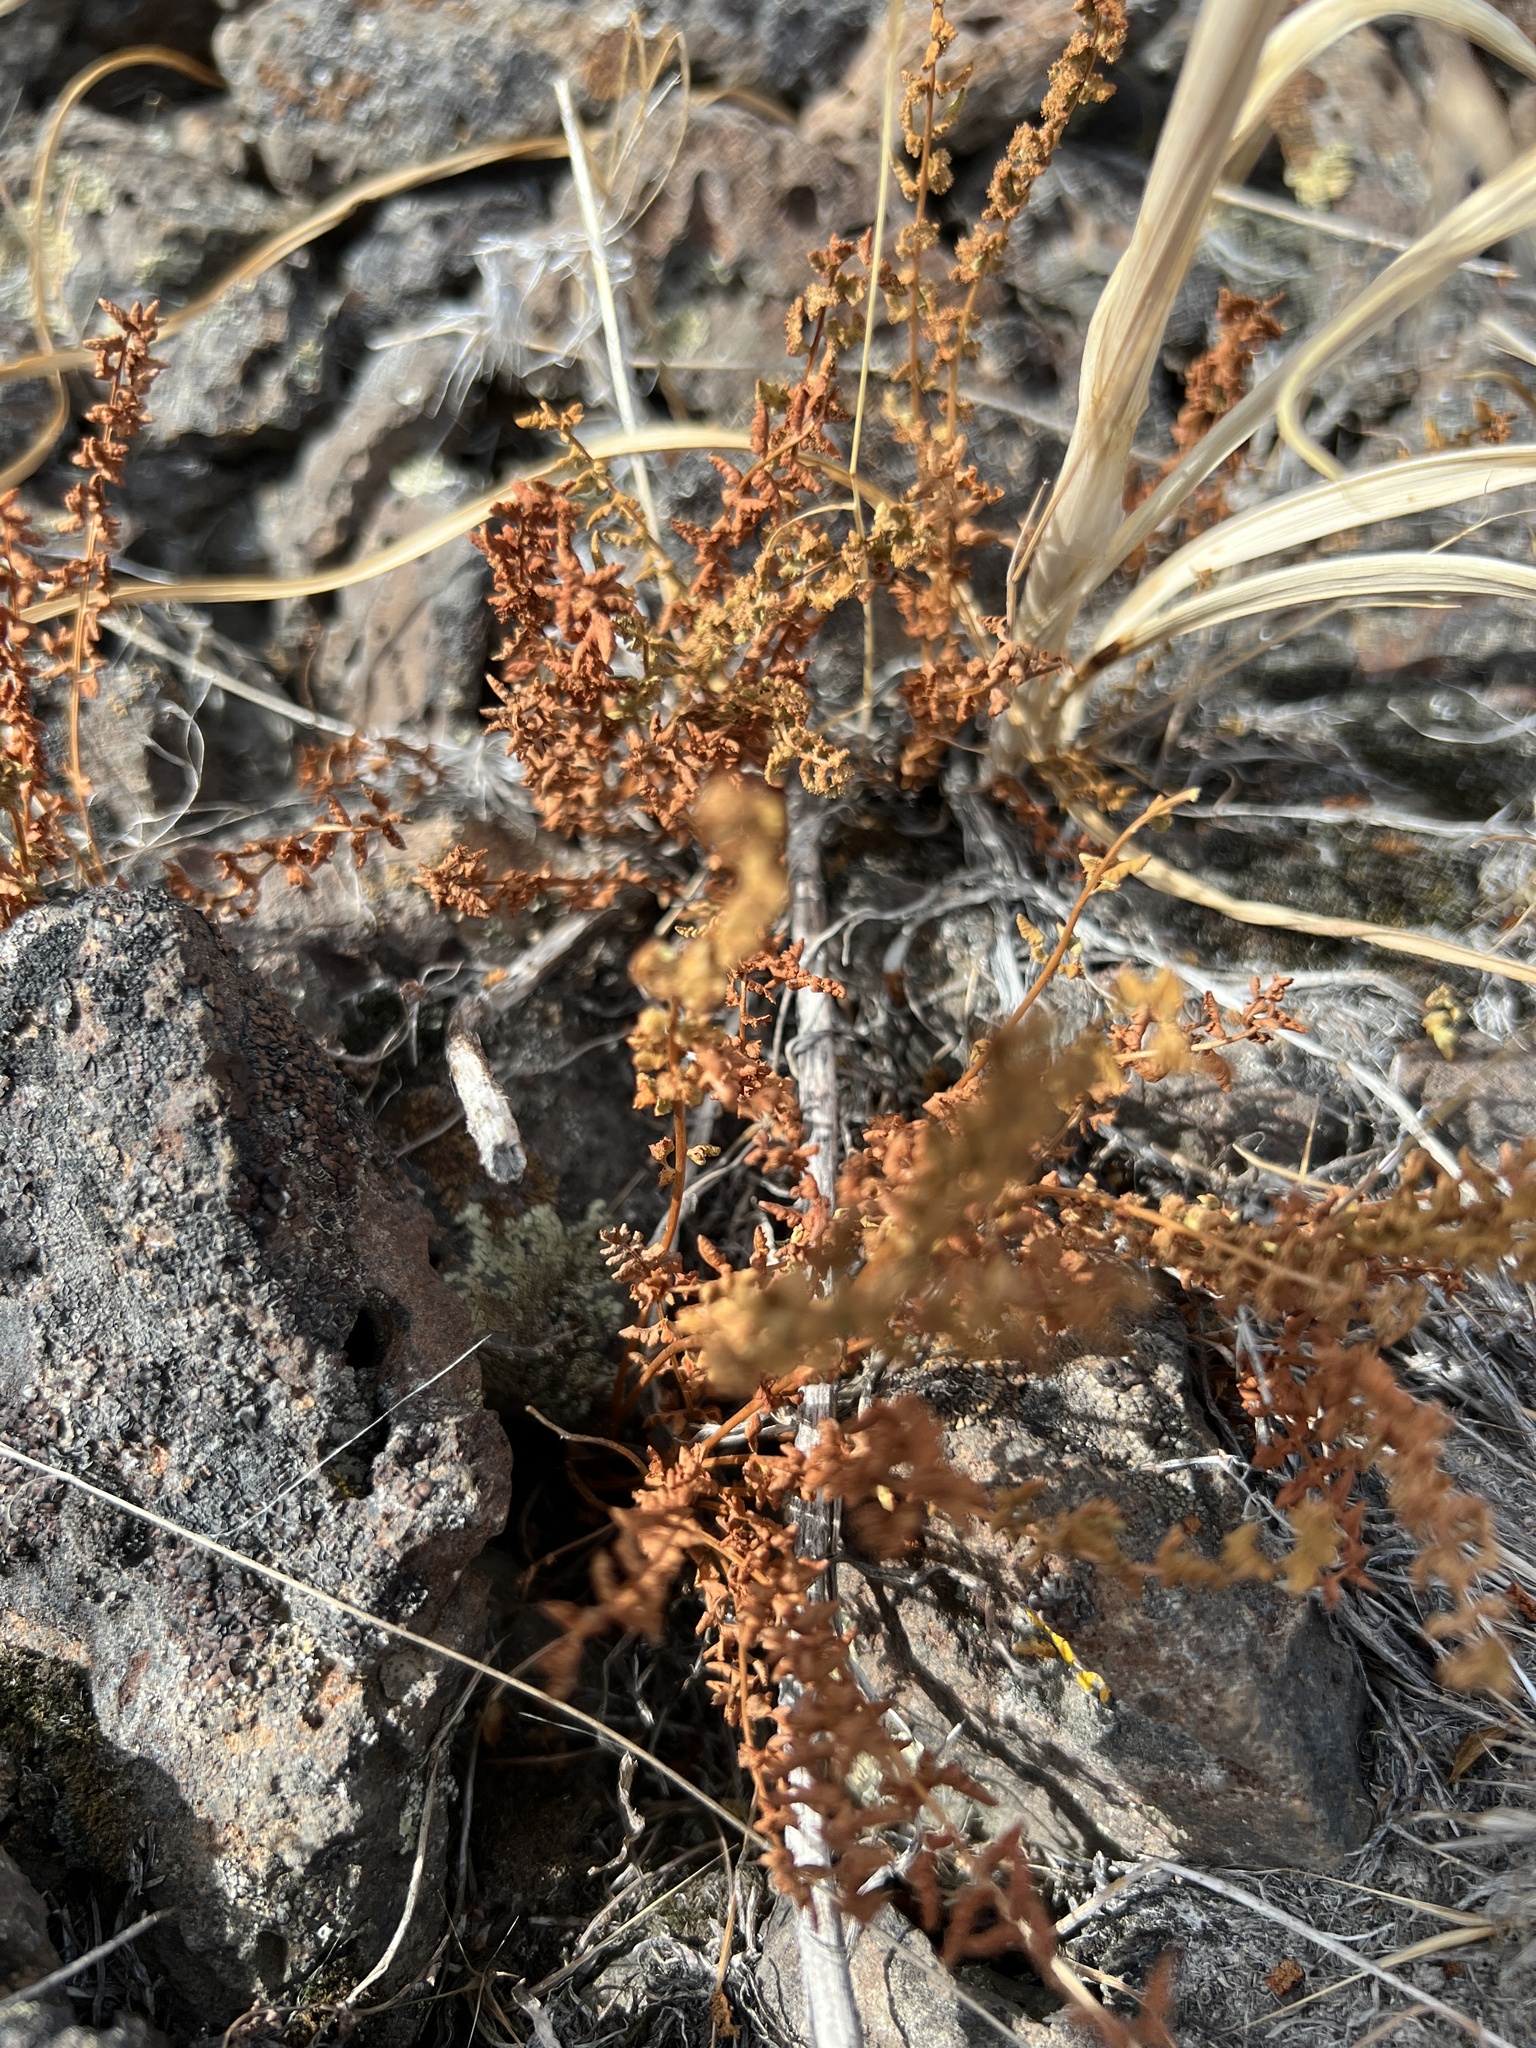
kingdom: Plantae
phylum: Tracheophyta
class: Polypodiopsida
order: Polypodiales
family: Woodsiaceae
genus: Physematium
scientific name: Physematium oreganum
